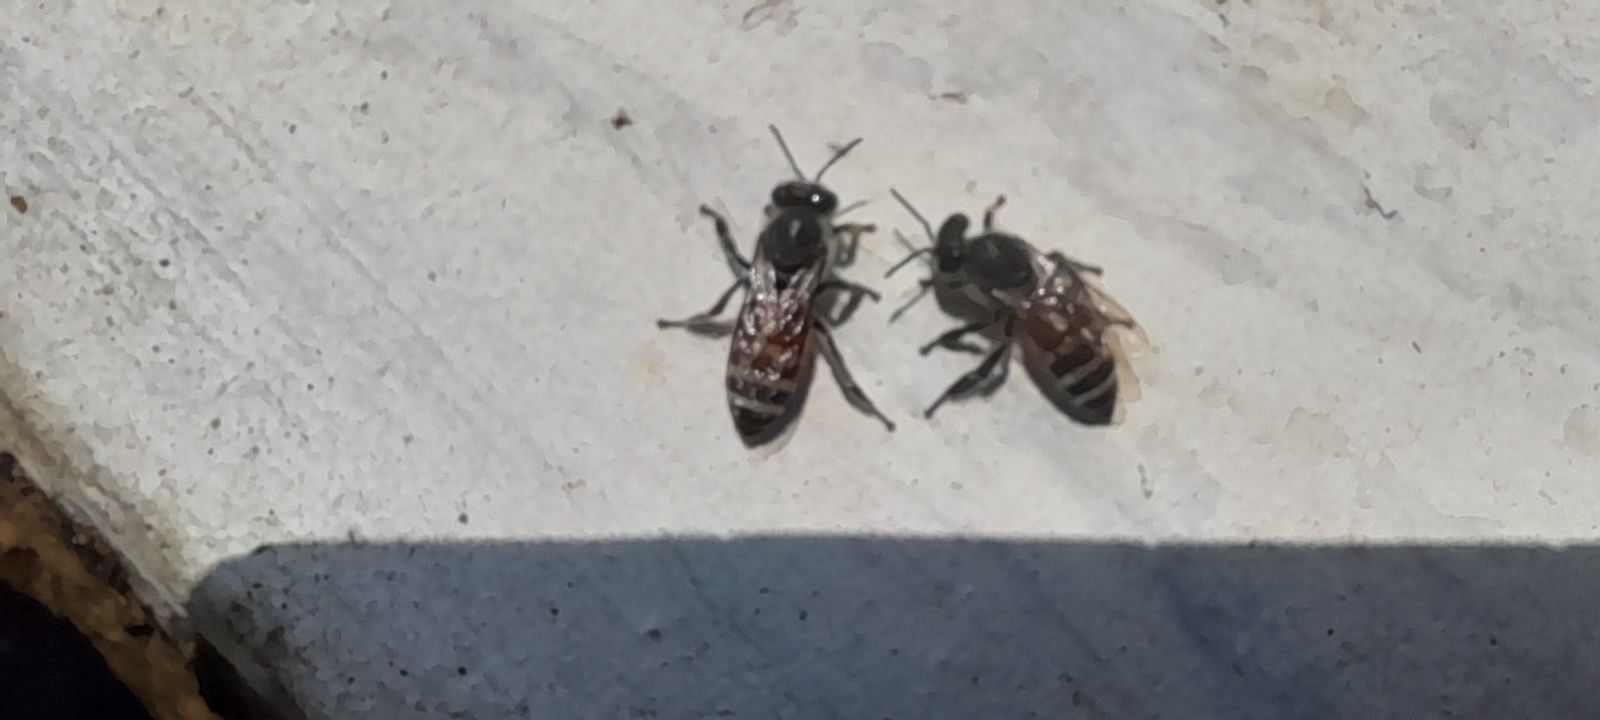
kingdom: Animalia
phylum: Arthropoda
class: Insecta
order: Hymenoptera
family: Apidae
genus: Apis
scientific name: Apis florea
